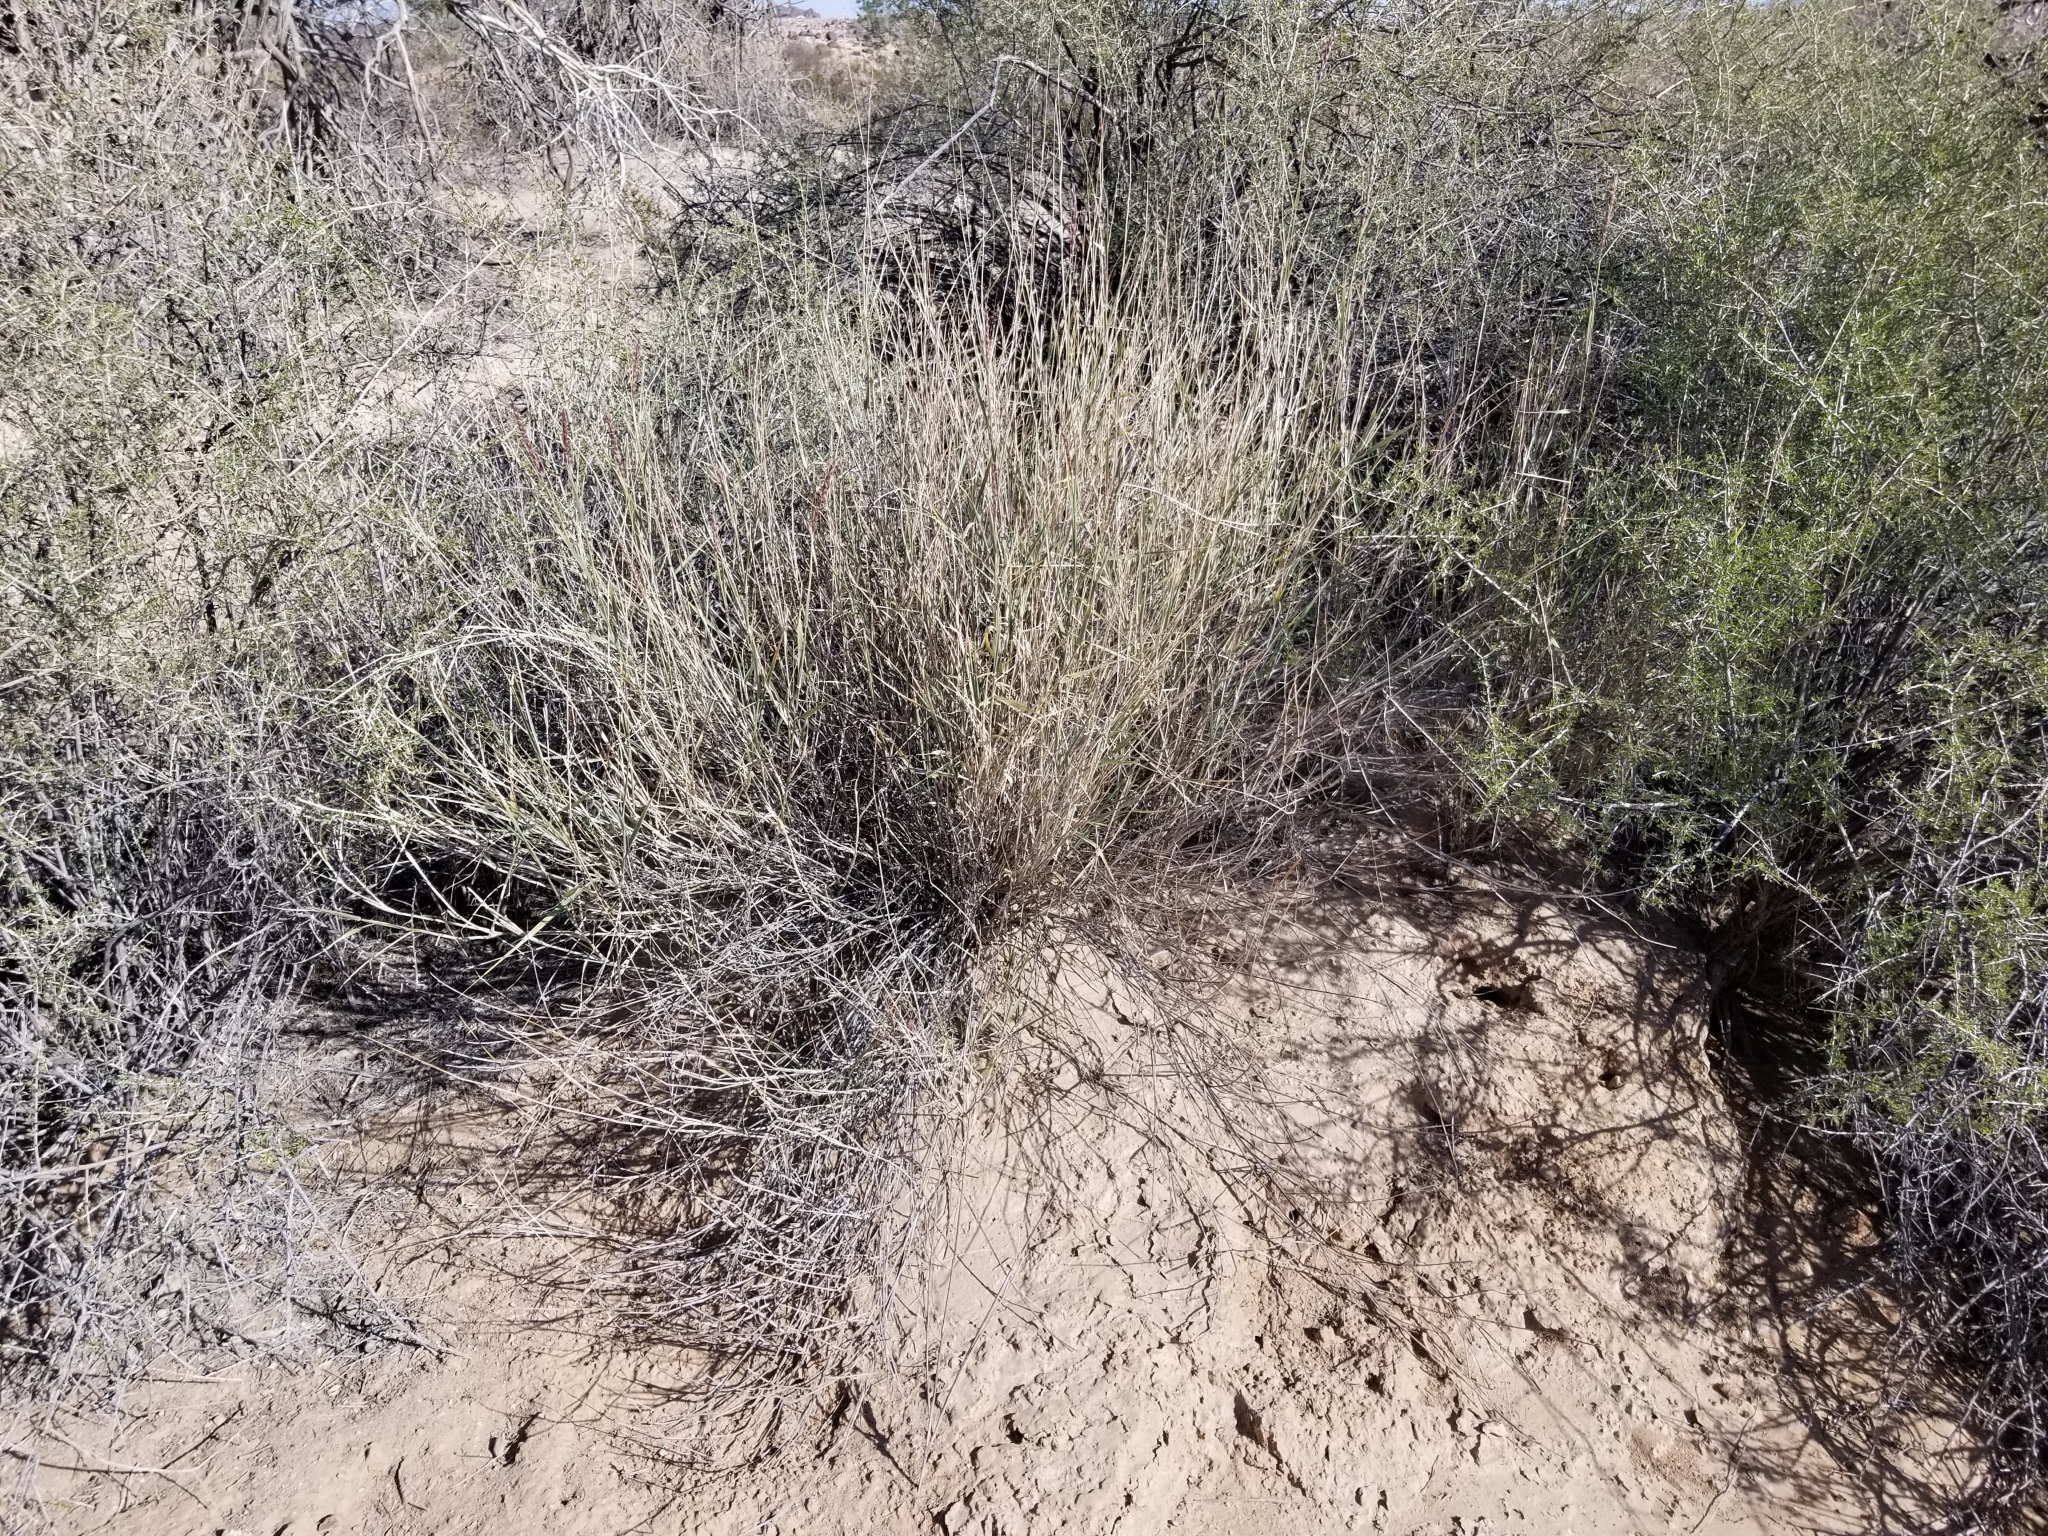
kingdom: Plantae
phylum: Tracheophyta
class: Liliopsida
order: Poales
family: Poaceae
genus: Hilaria
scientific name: Hilaria rigida
